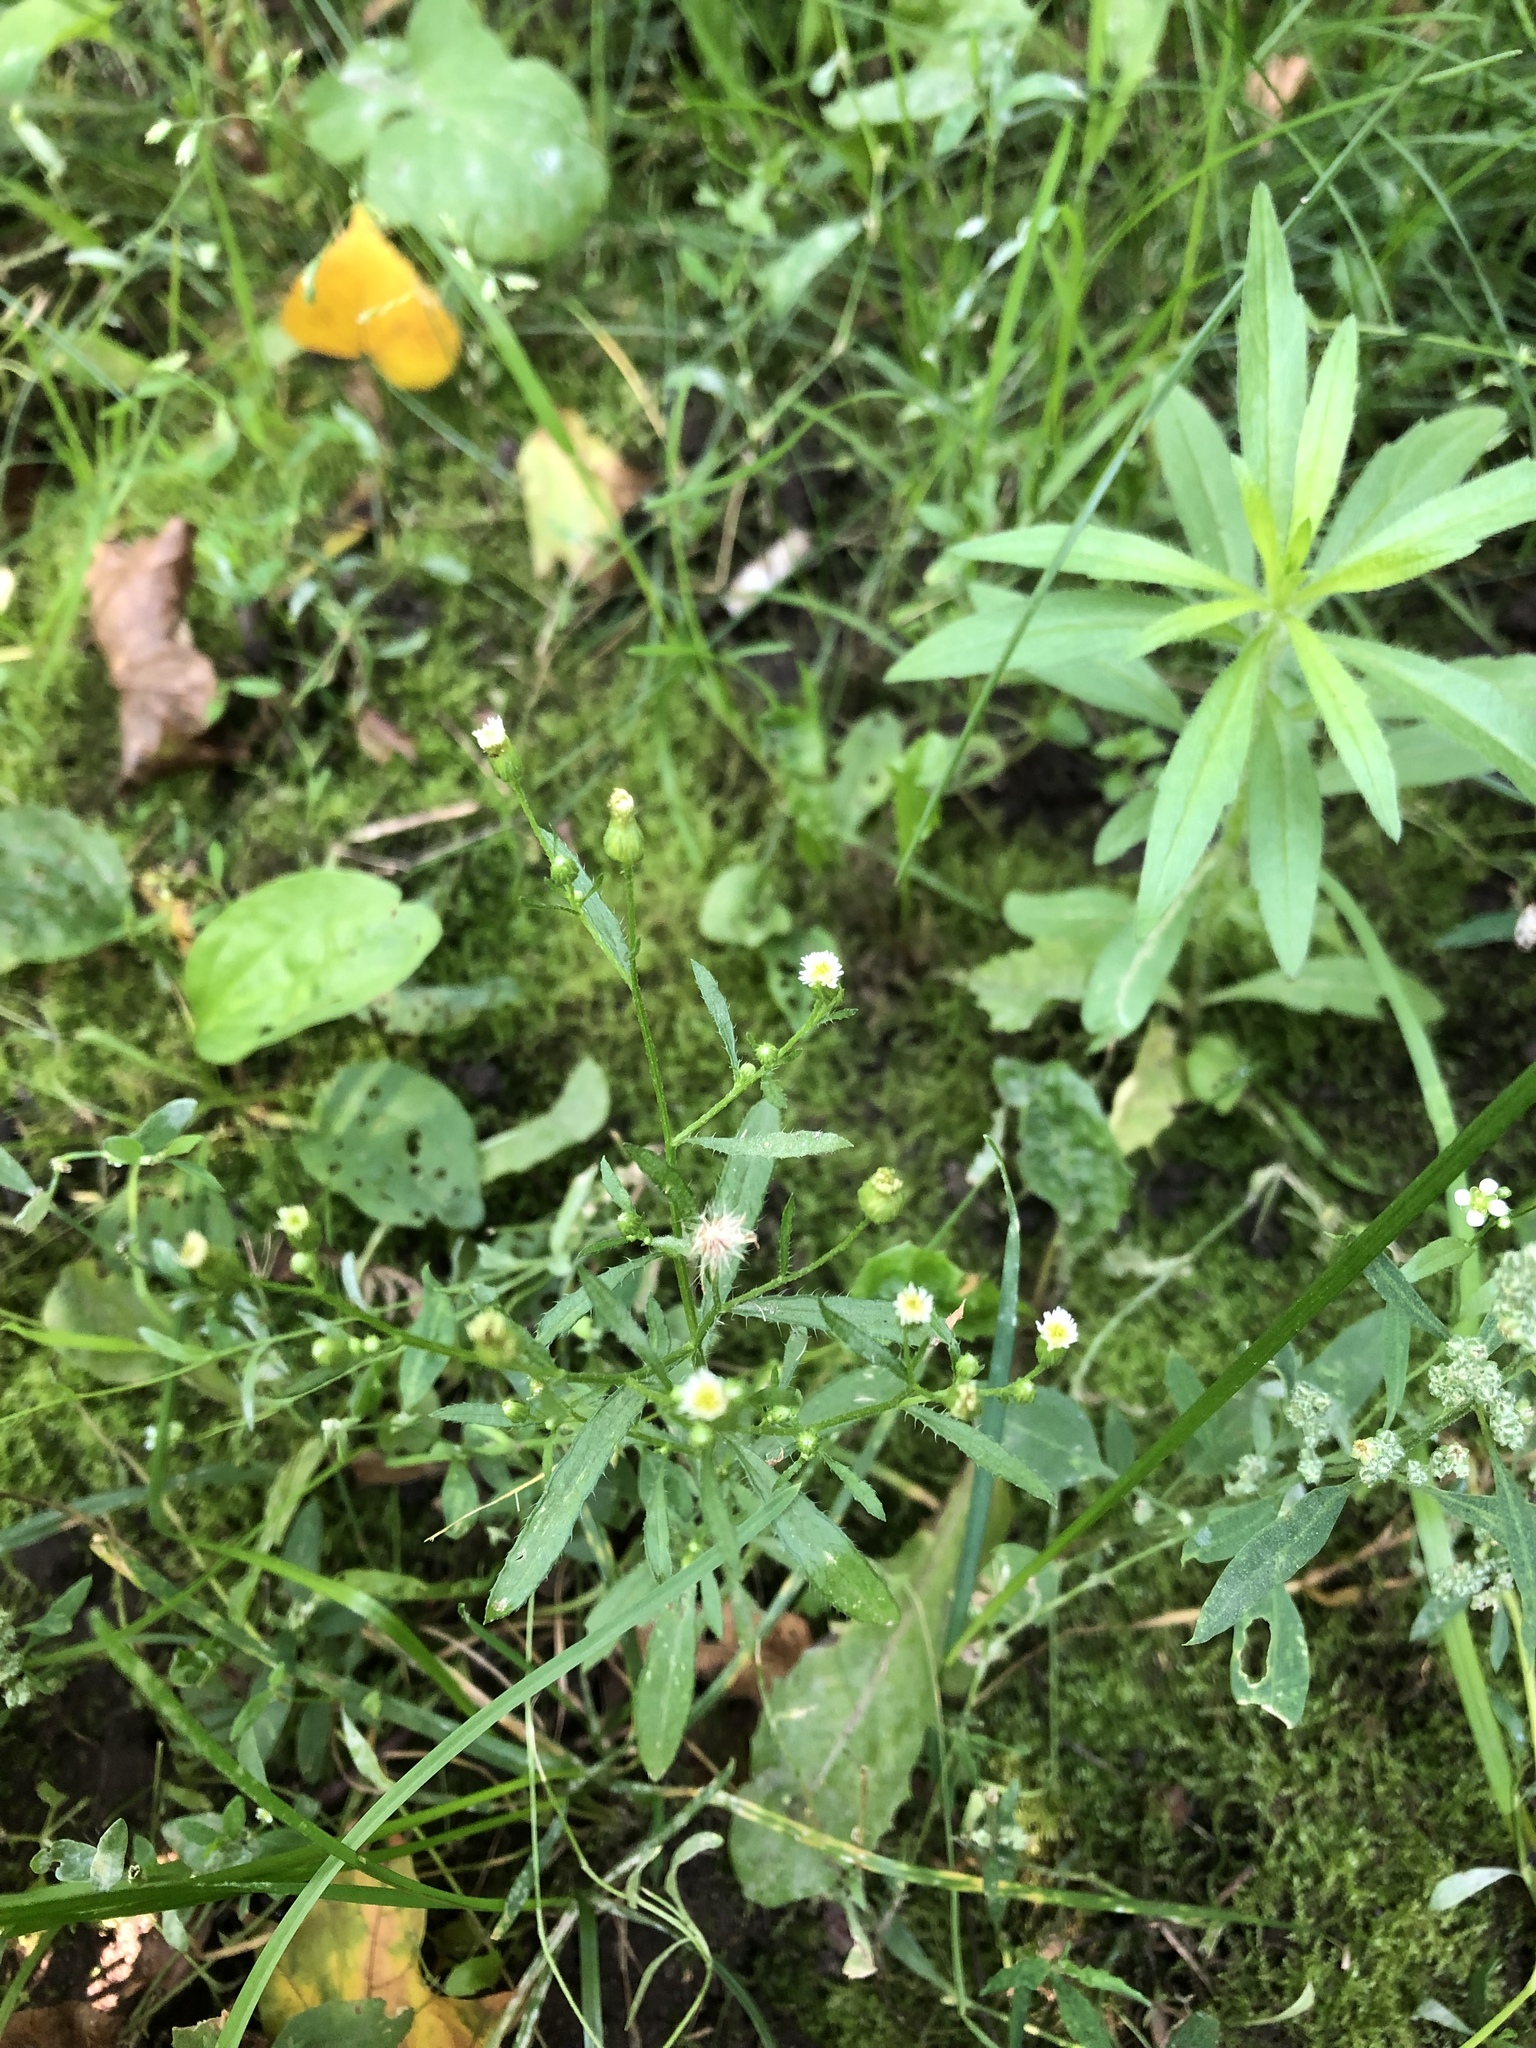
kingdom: Plantae
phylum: Tracheophyta
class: Magnoliopsida
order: Asterales
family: Asteraceae
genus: Erigeron
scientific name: Erigeron canadensis
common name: Canadian fleabane
